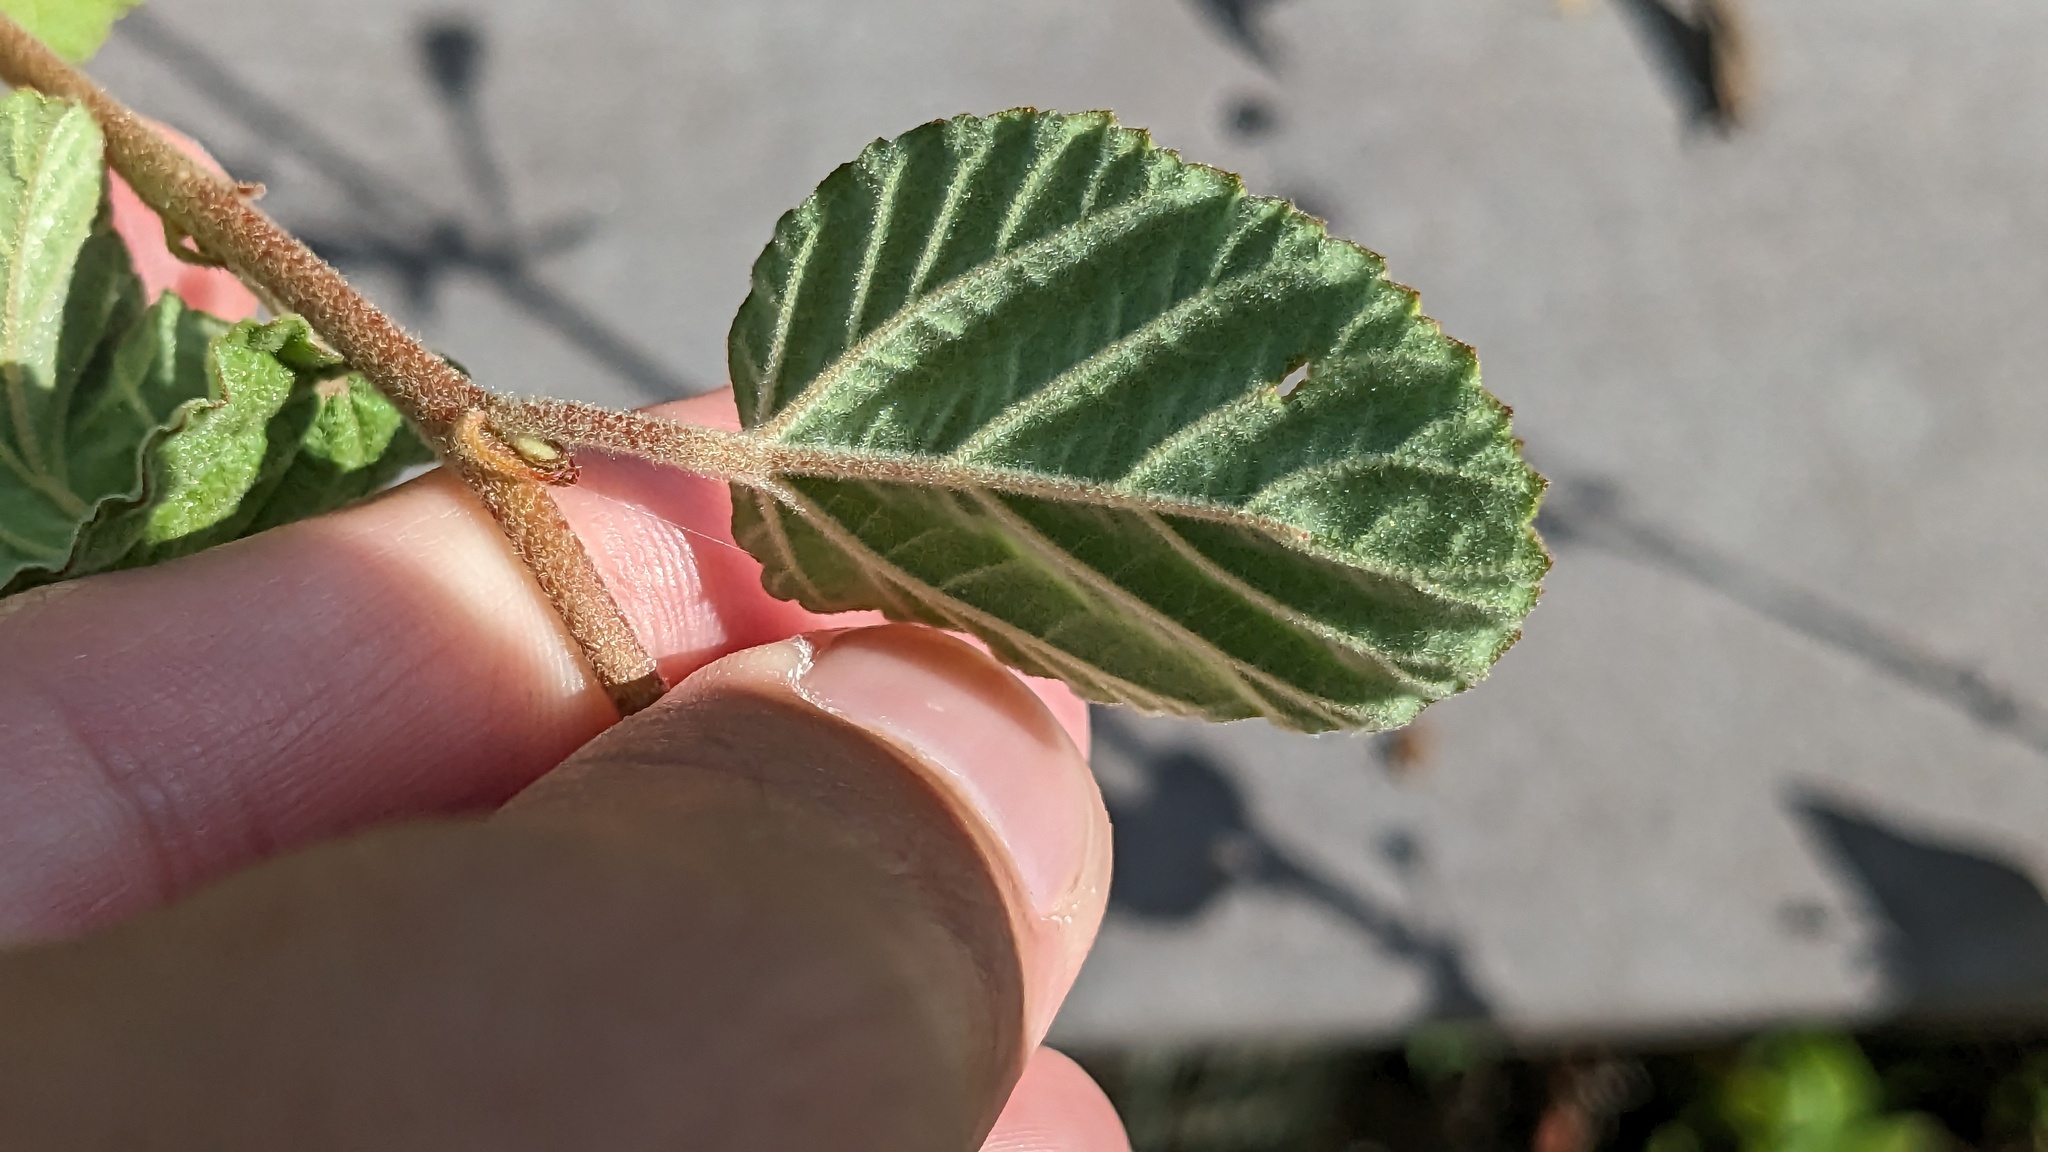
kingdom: Plantae
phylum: Tracheophyta
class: Magnoliopsida
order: Malvales
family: Malvaceae
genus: Waltheria
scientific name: Waltheria indica
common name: Leather-coat
